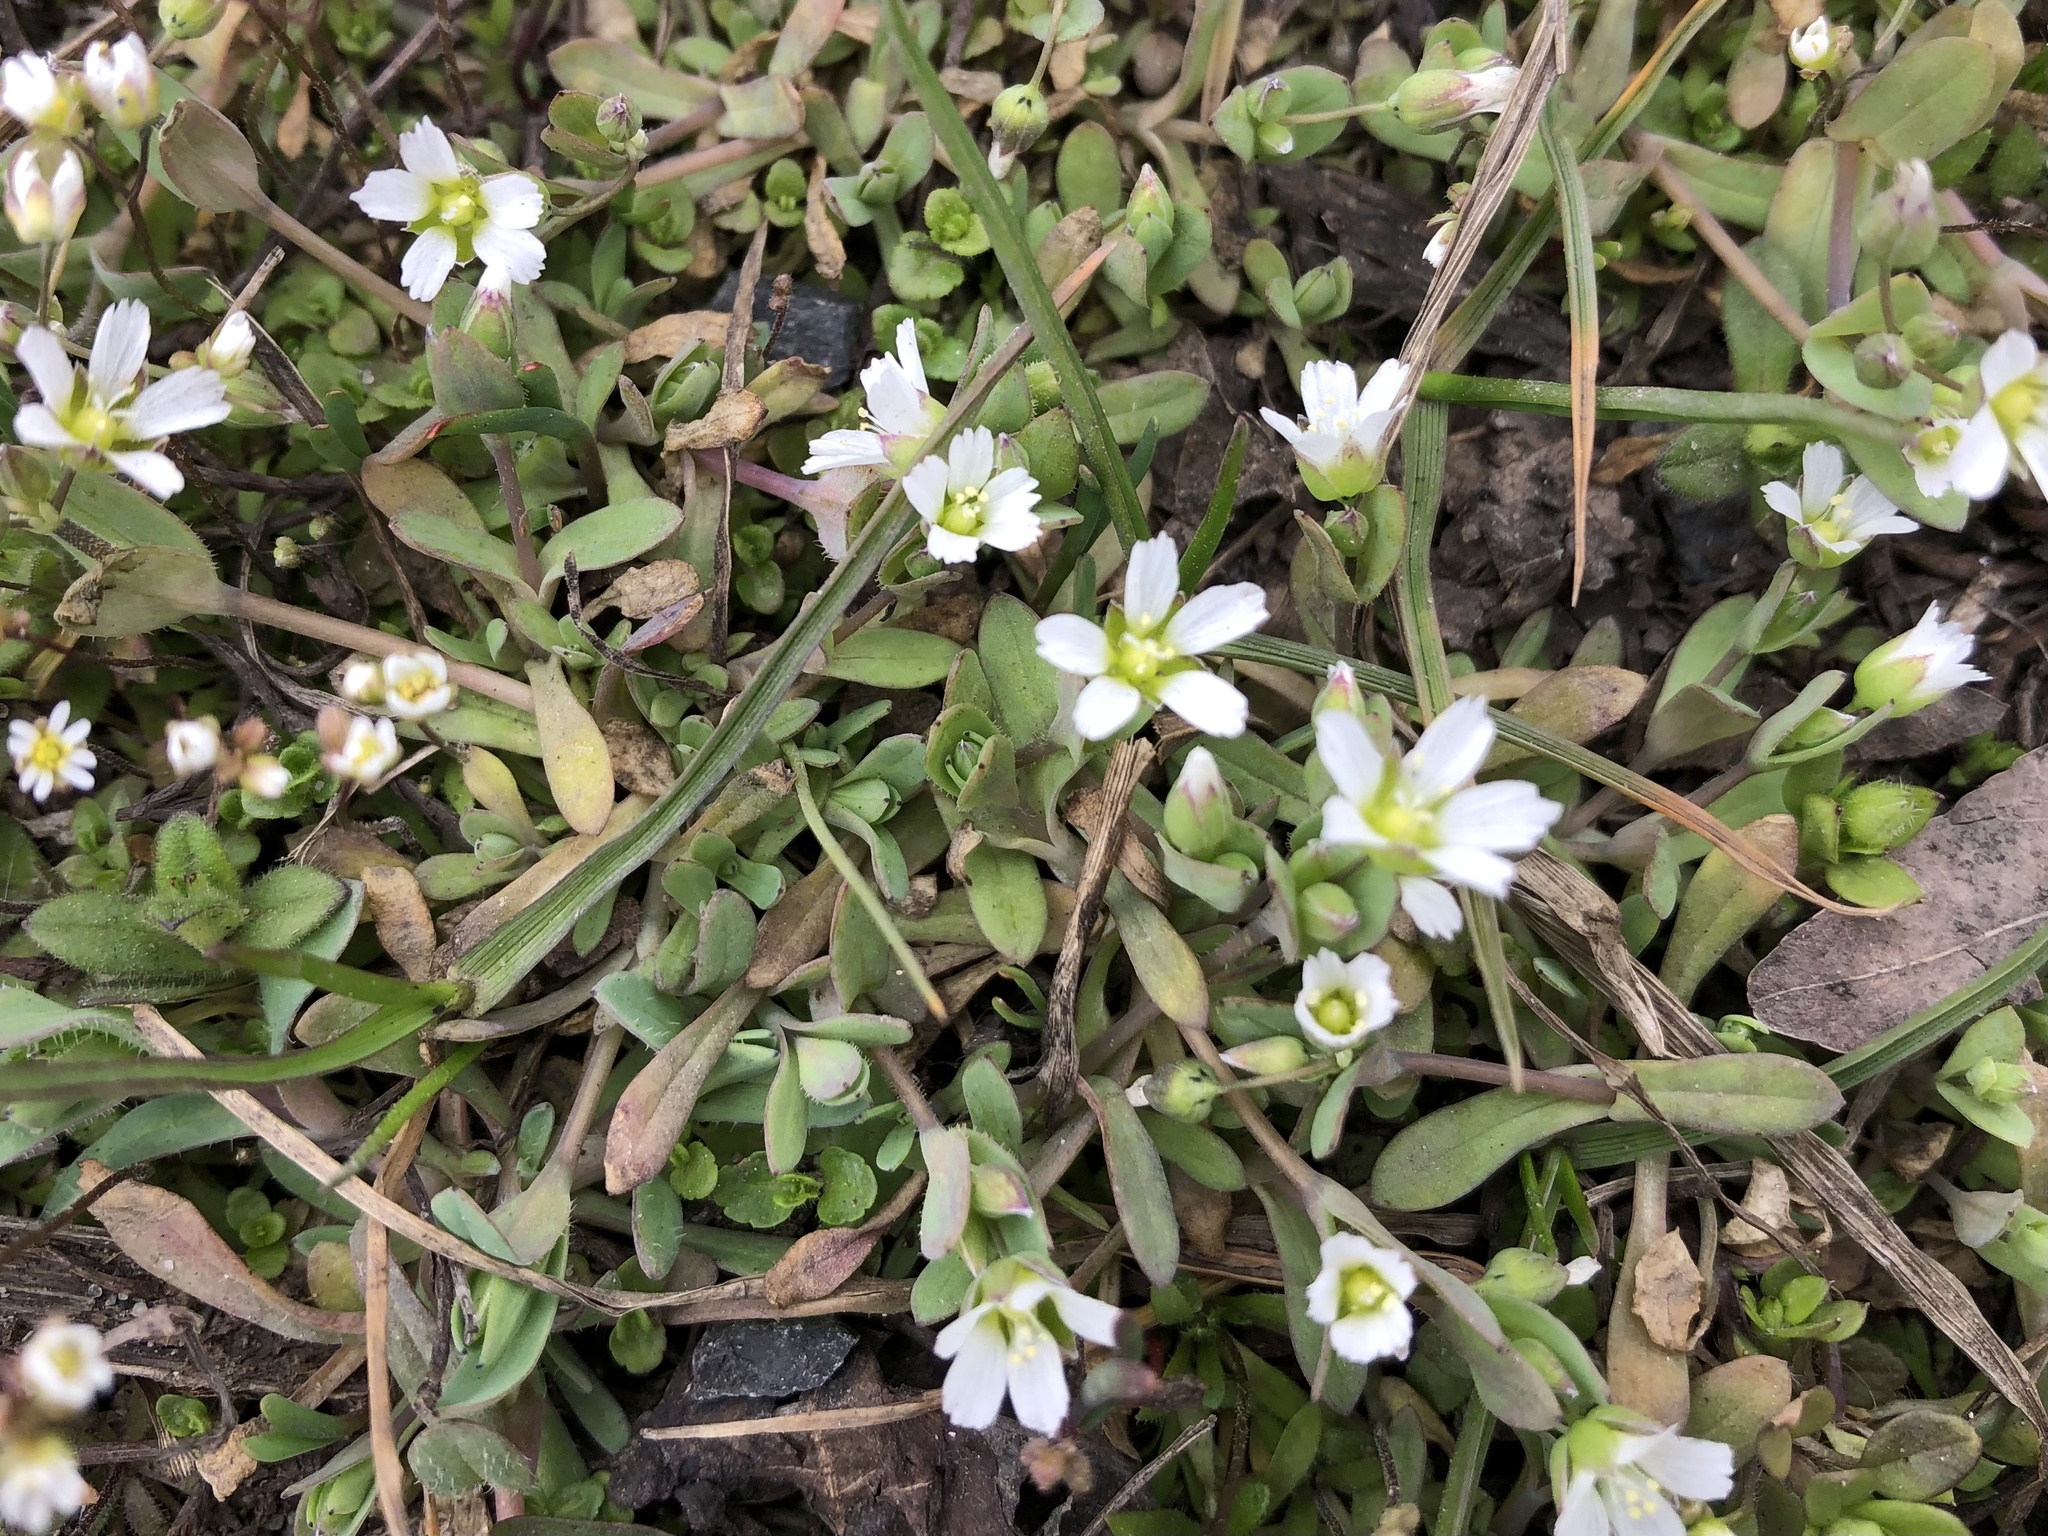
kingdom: Plantae
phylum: Tracheophyta
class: Magnoliopsida
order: Caryophyllales
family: Caryophyllaceae
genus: Holosteum
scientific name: Holosteum umbellatum
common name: Jagged chickweed
